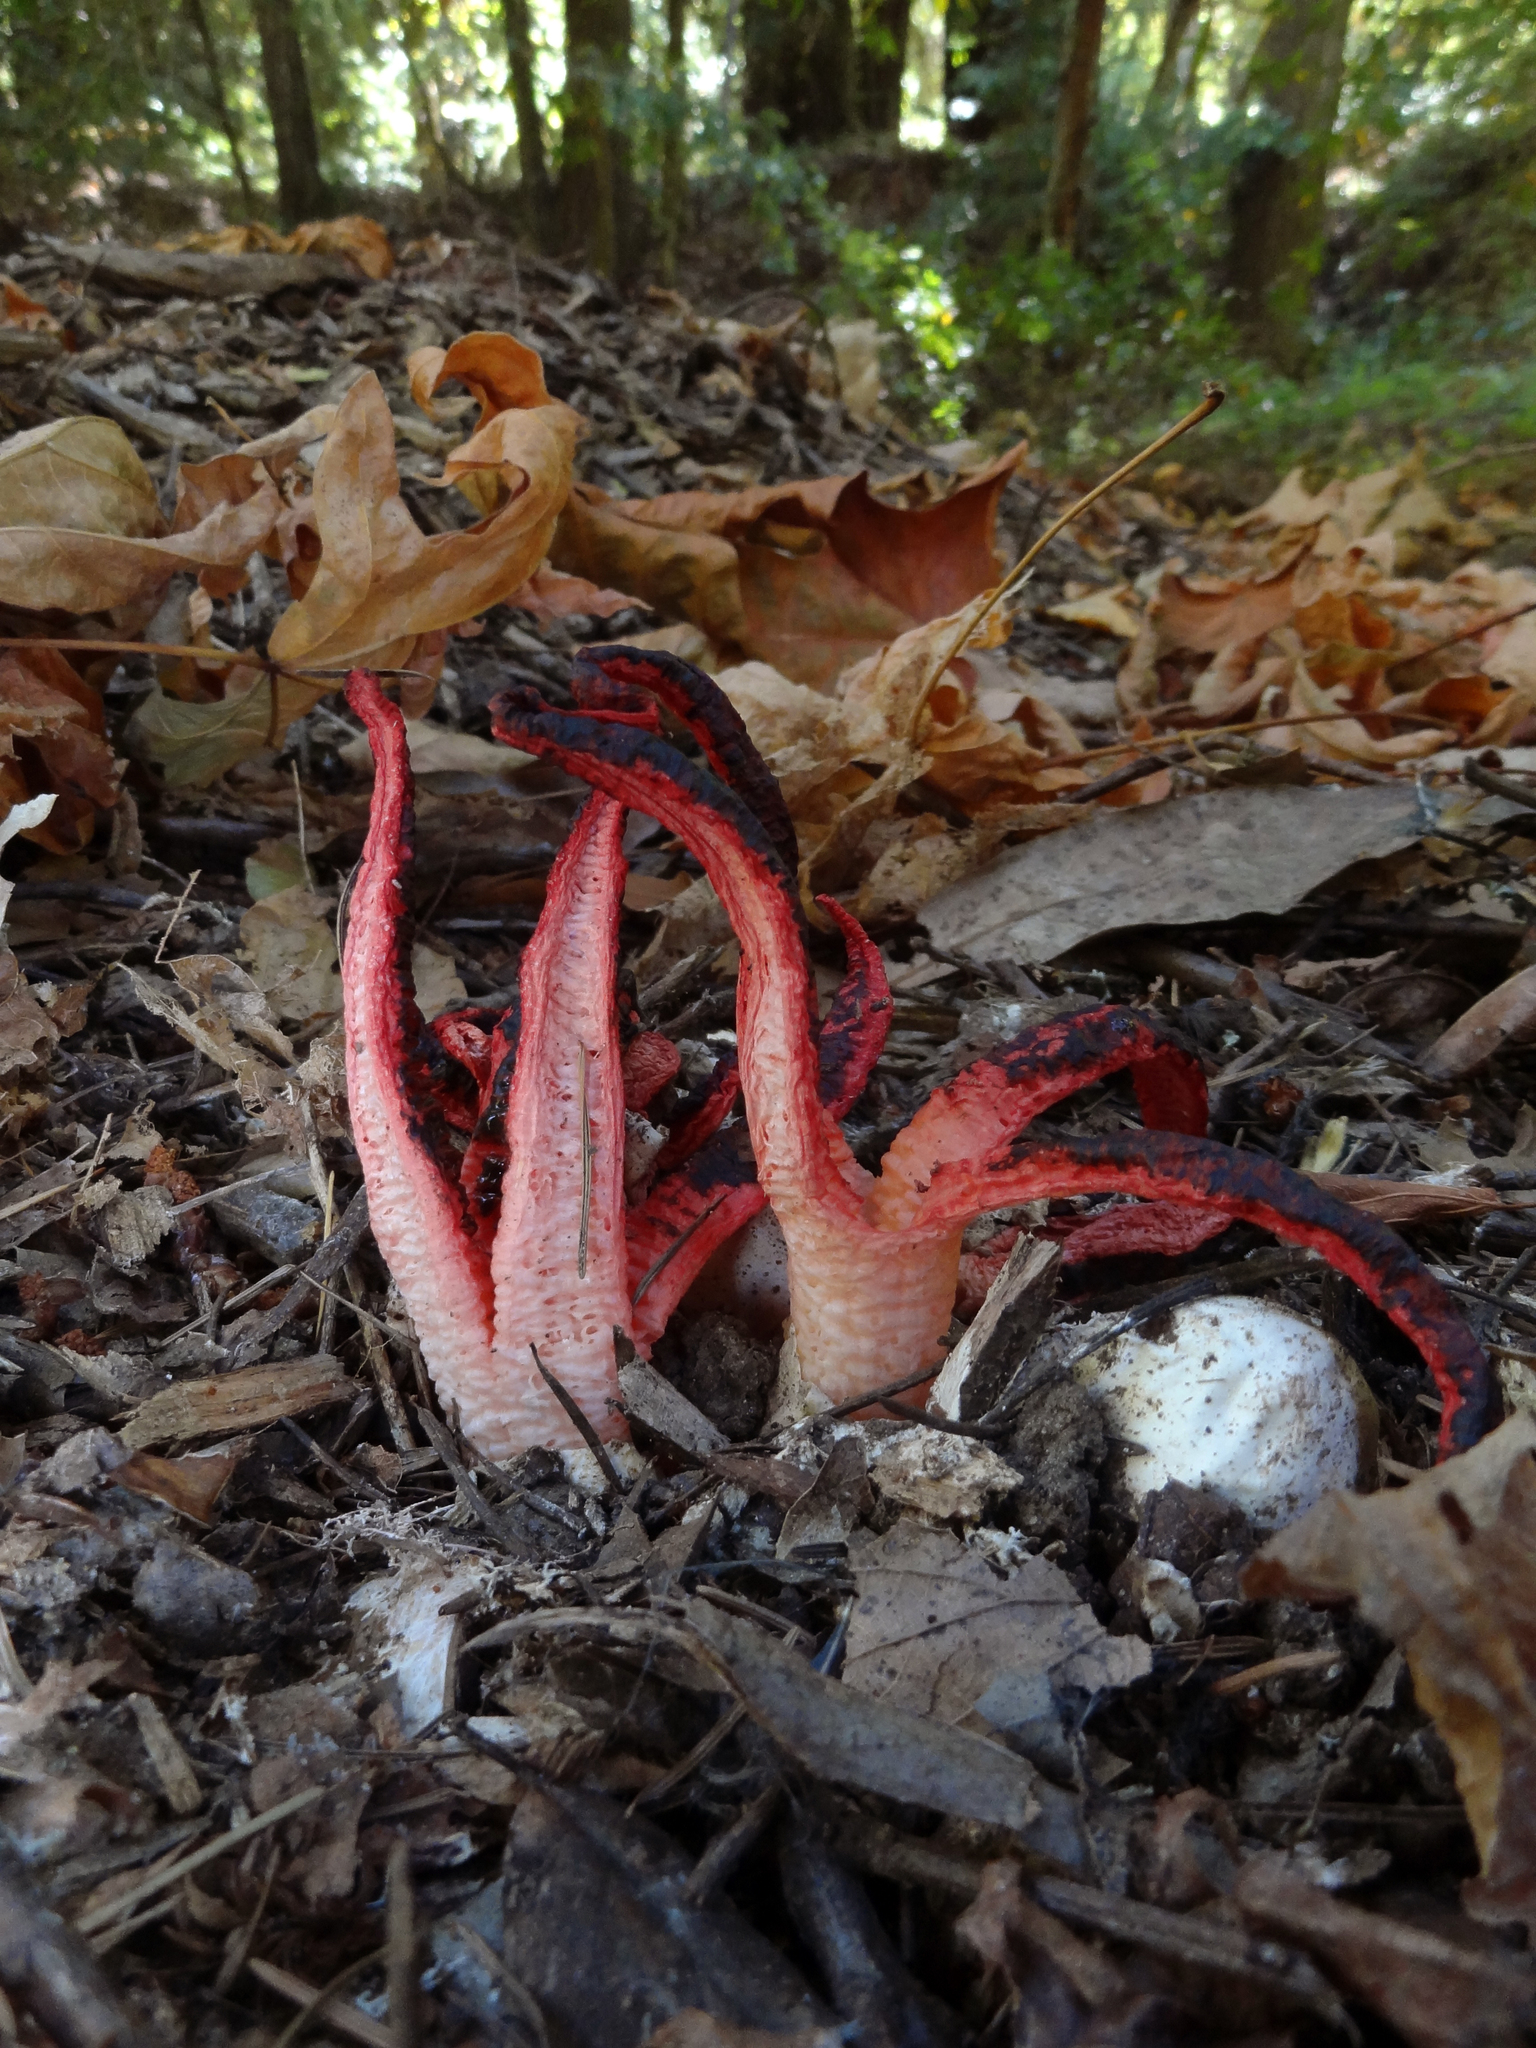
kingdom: Fungi
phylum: Basidiomycota
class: Agaricomycetes
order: Phallales
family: Phallaceae
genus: Clathrus
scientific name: Clathrus archeri
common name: Devil's fingers
